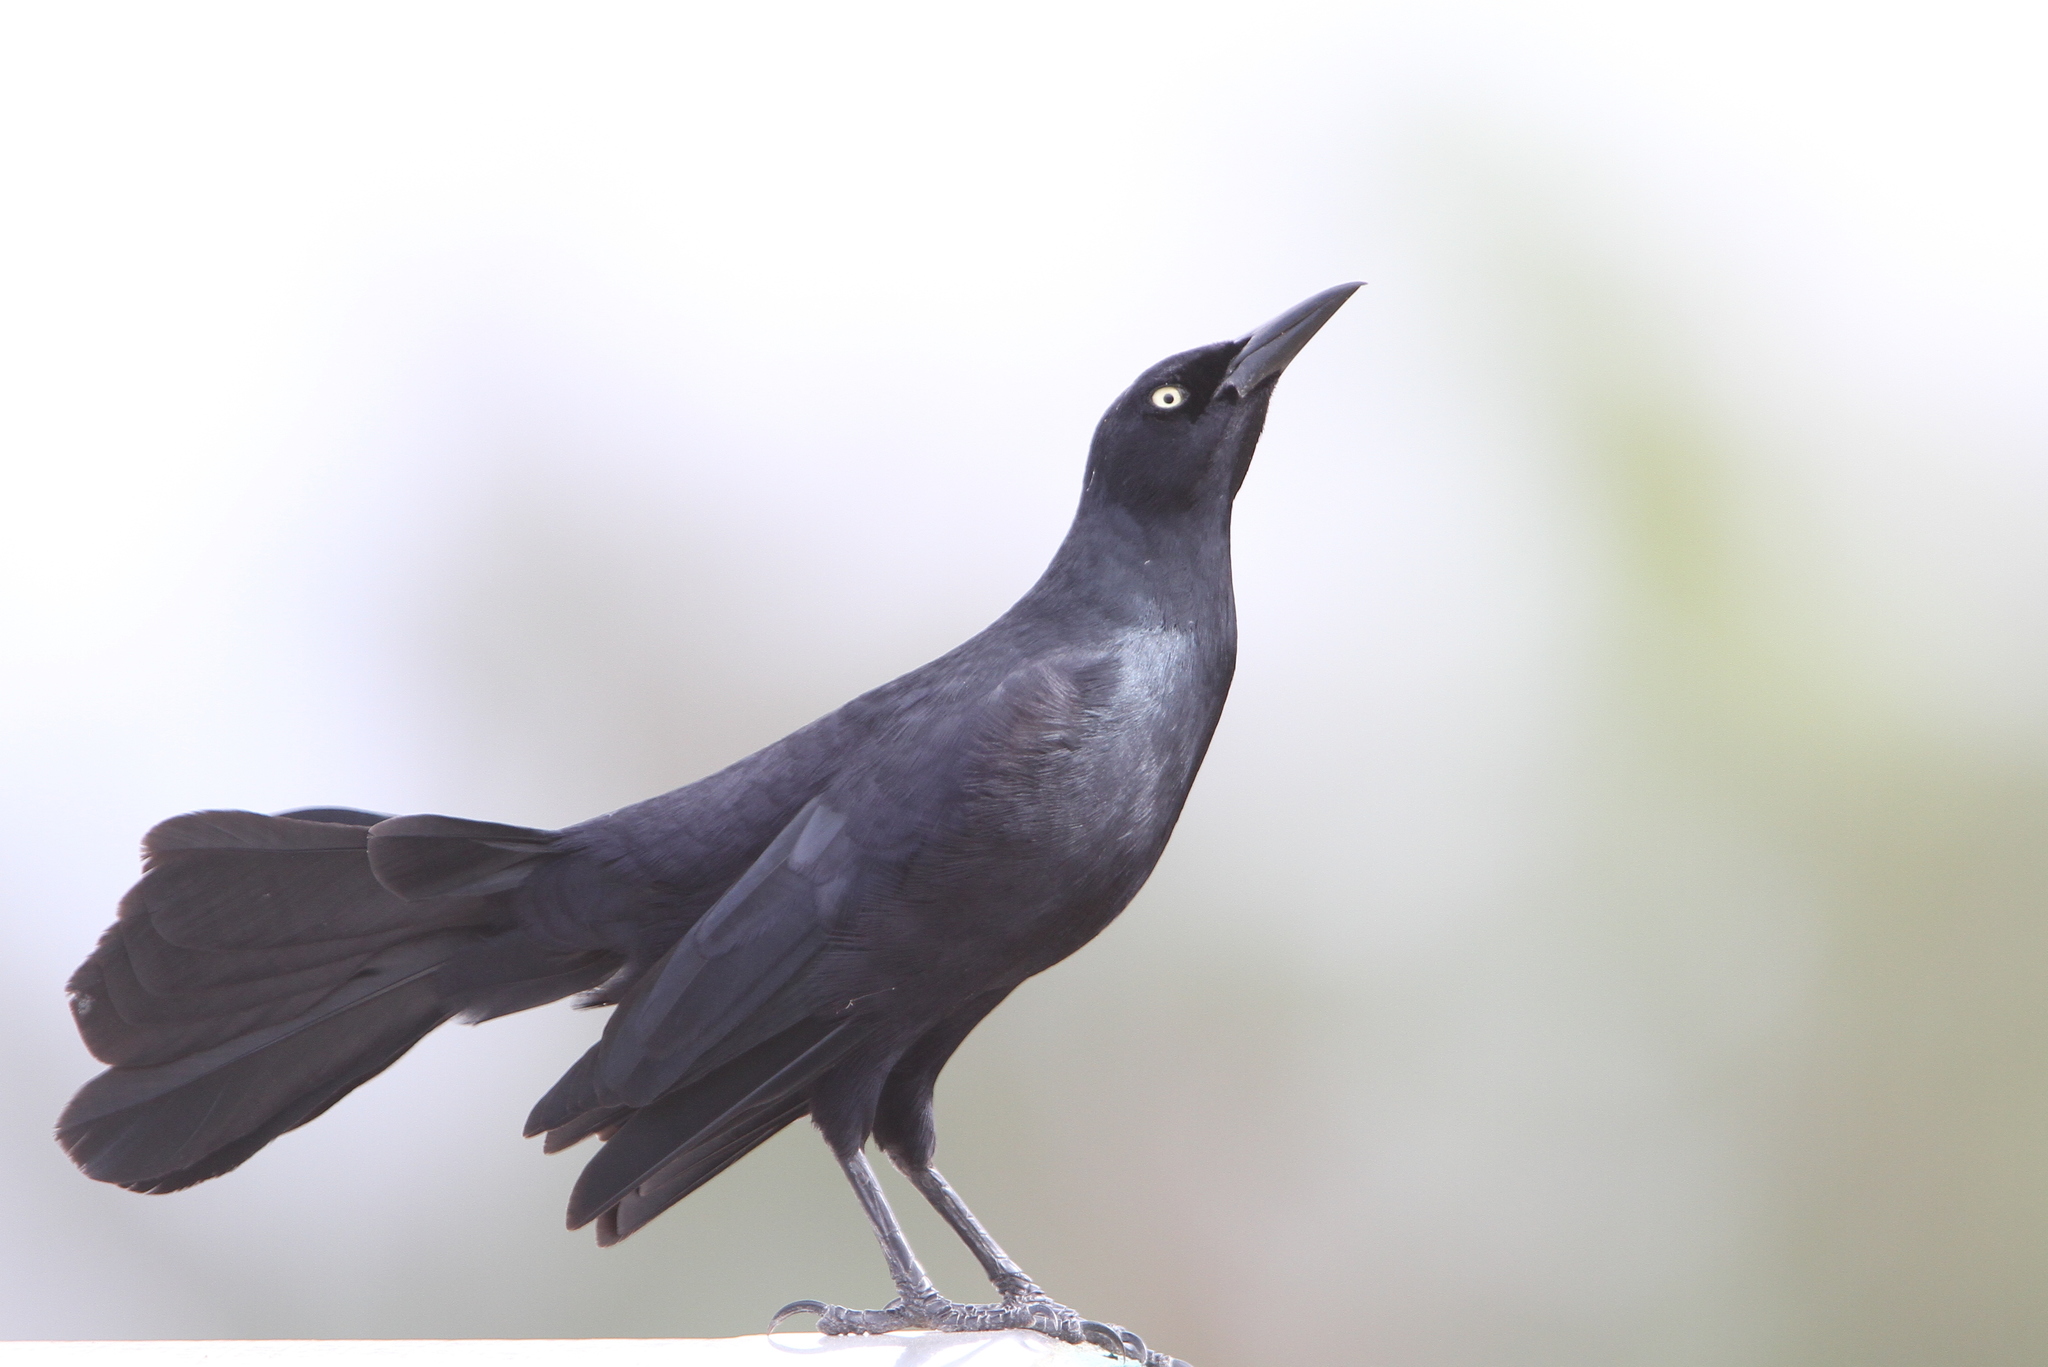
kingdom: Animalia
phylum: Chordata
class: Aves
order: Passeriformes
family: Icteridae
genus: Quiscalus
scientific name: Quiscalus niger
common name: Greater antillean grackle
